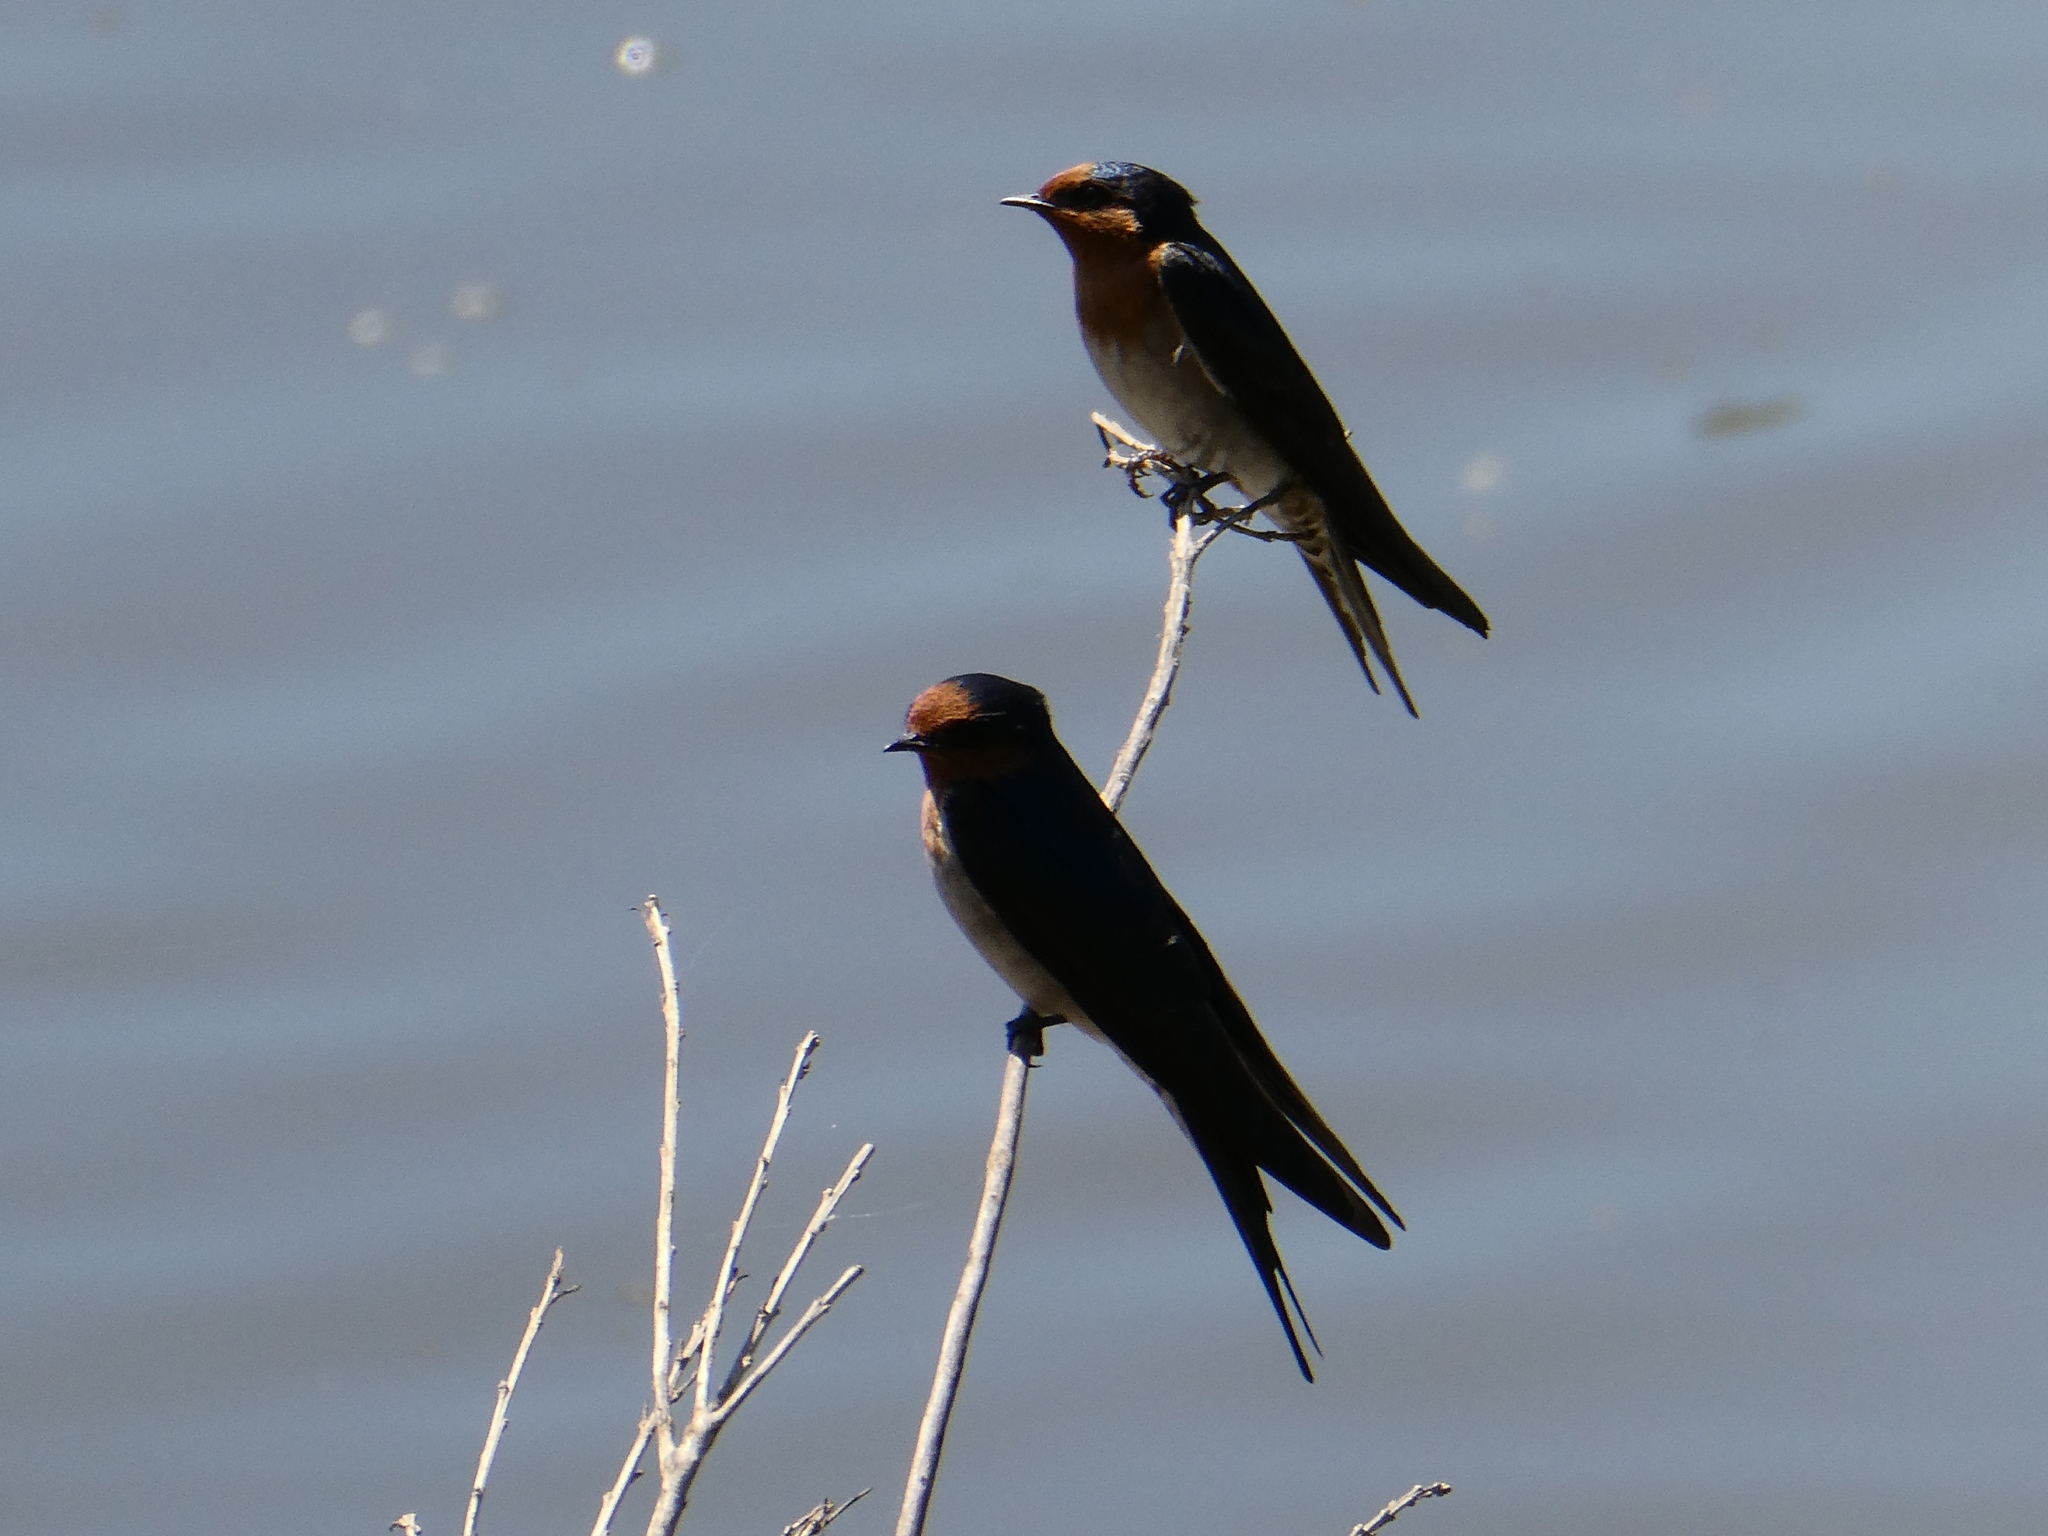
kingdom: Animalia
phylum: Chordata
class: Aves
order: Passeriformes
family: Hirundinidae
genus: Hirundo
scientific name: Hirundo neoxena
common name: Welcome swallow
